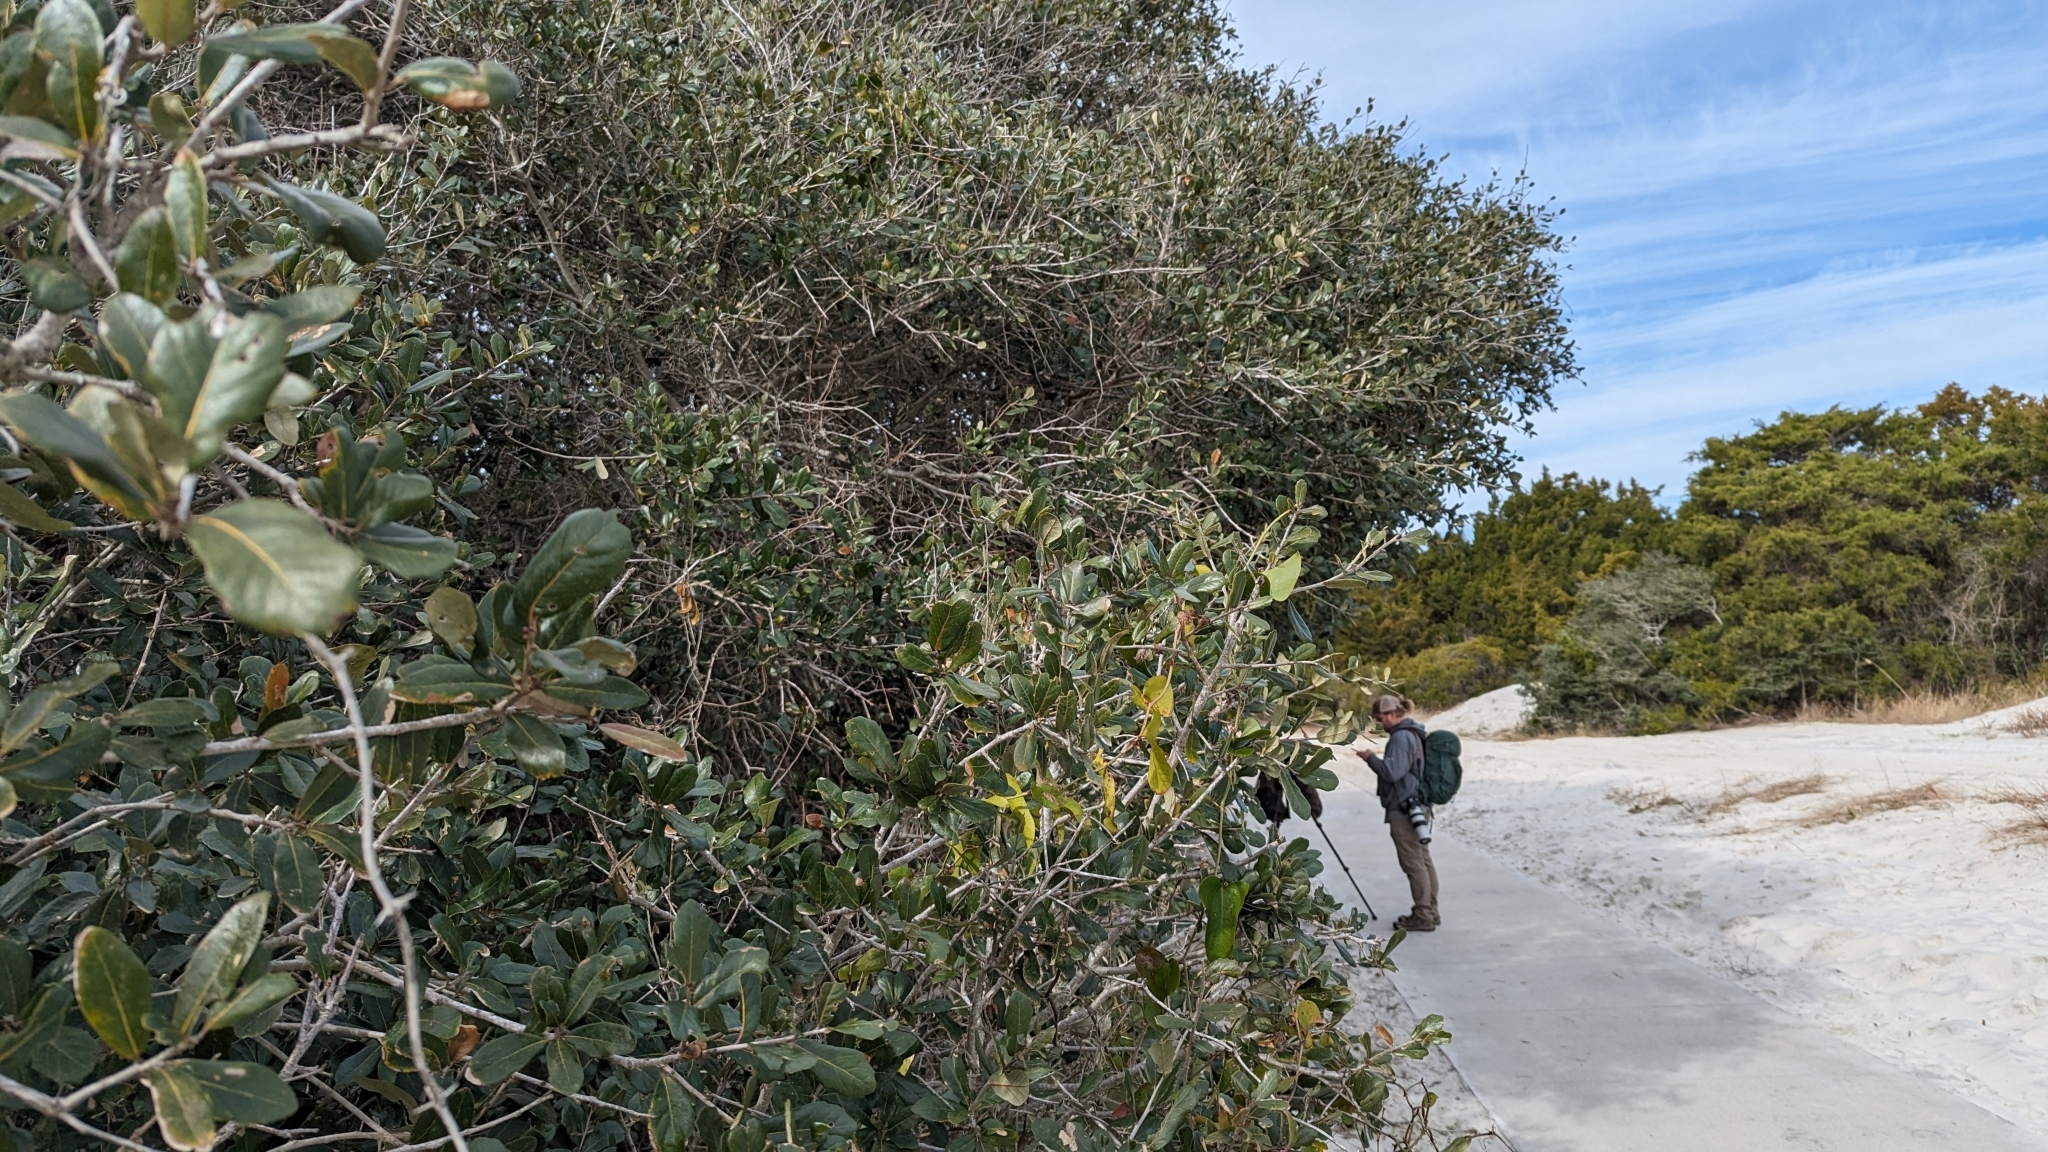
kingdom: Plantae
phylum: Tracheophyta
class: Magnoliopsida
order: Fagales
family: Fagaceae
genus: Quercus
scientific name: Quercus virginiana
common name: Southern live oak
